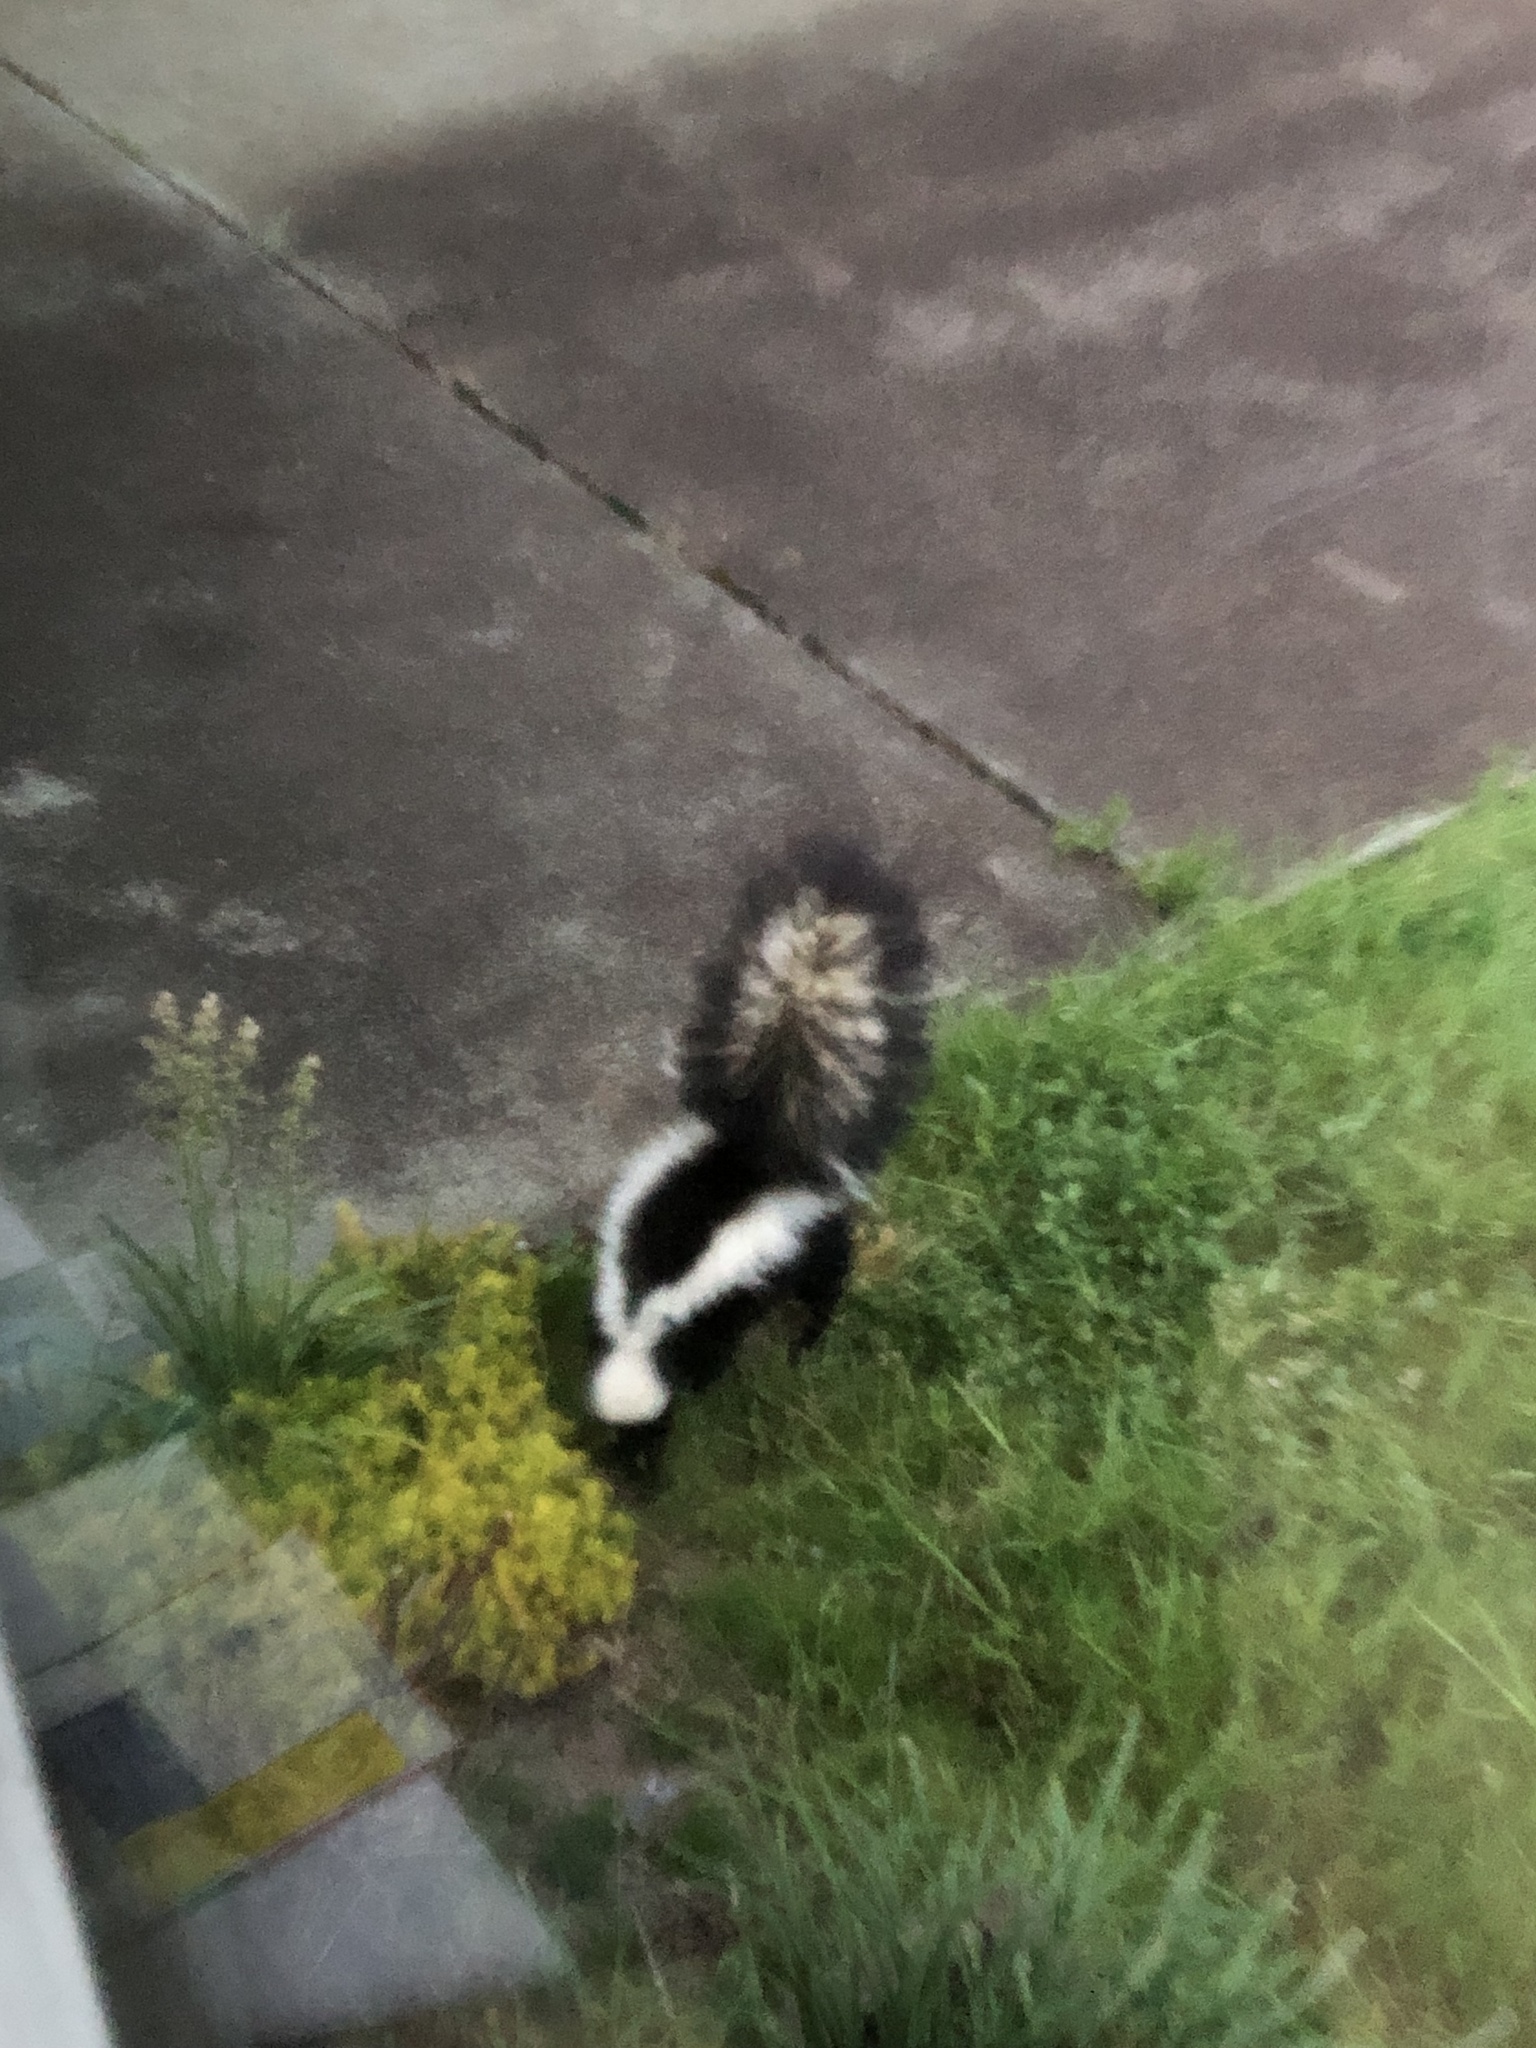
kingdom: Animalia
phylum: Chordata
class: Mammalia
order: Carnivora
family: Mephitidae
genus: Mephitis
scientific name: Mephitis mephitis
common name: Striped skunk
